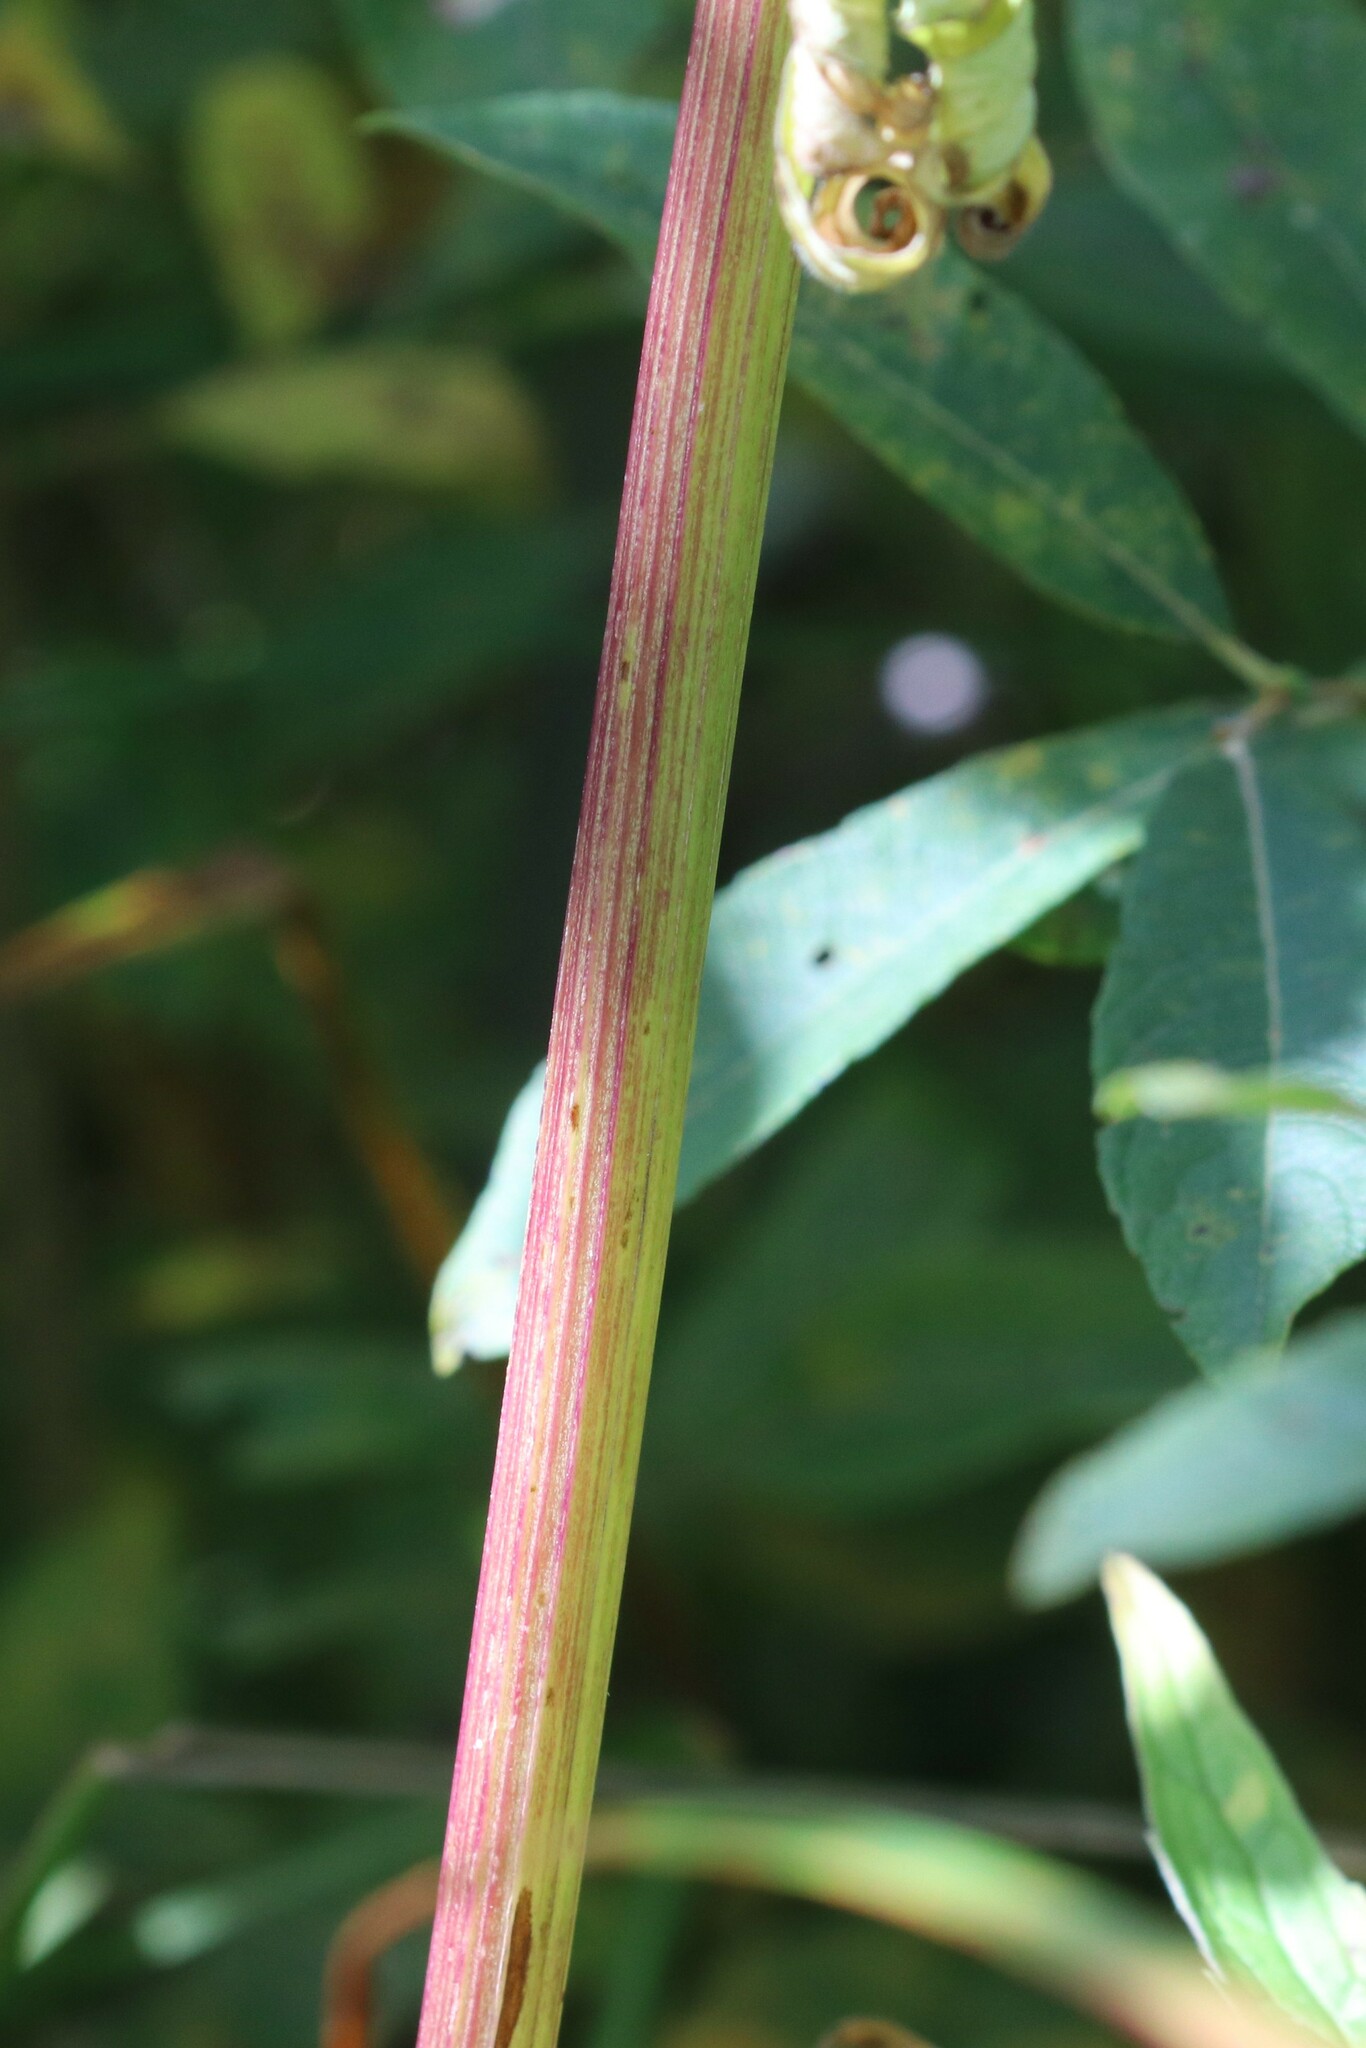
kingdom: Plantae
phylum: Tracheophyta
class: Magnoliopsida
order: Dipsacales
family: Caprifoliaceae
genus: Valeriana
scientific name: Valeriana officinalis
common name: Common valerian
